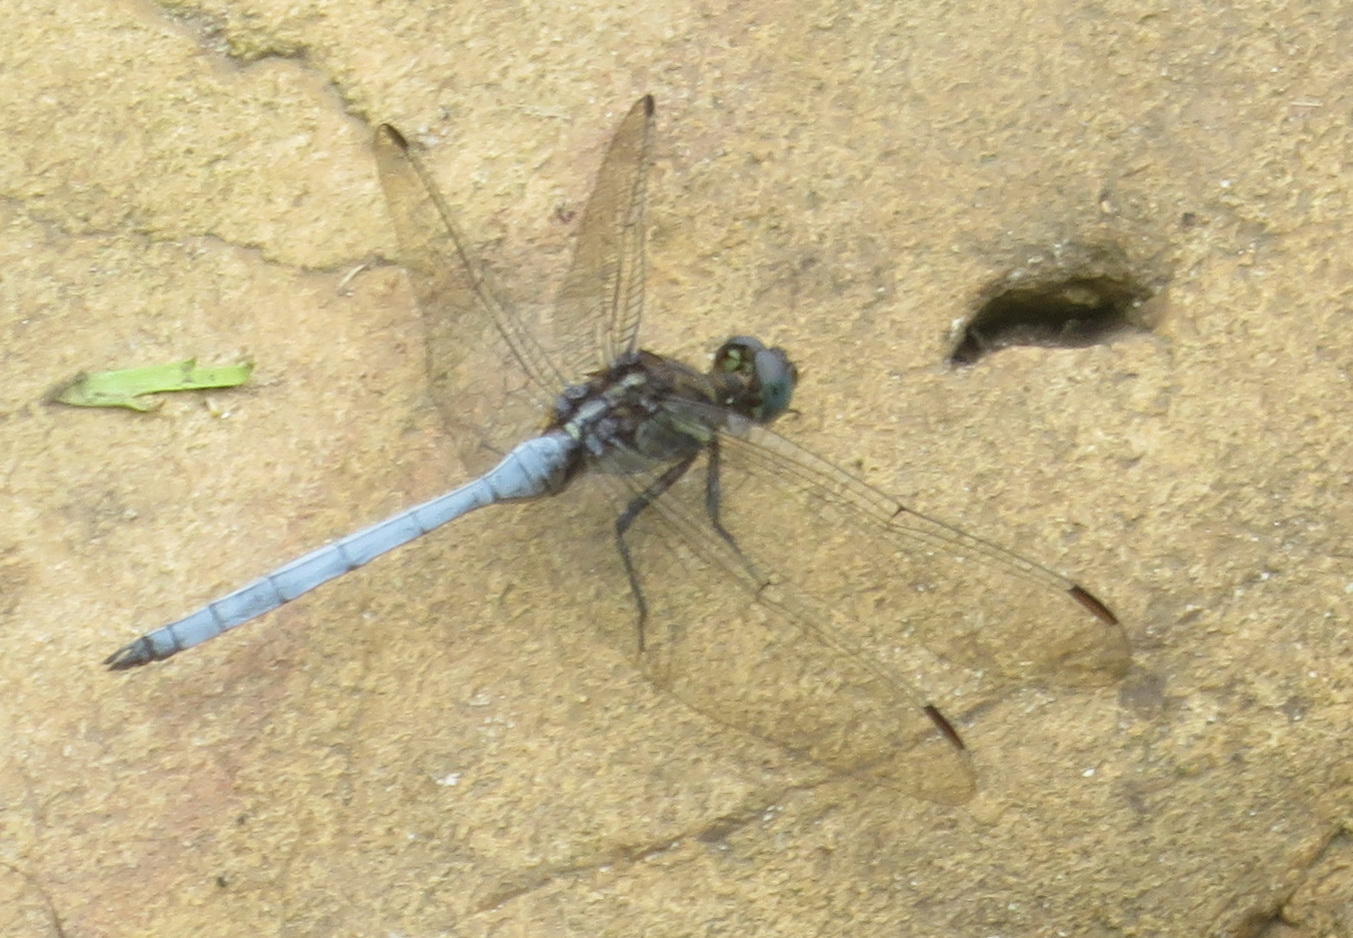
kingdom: Animalia
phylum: Arthropoda
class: Insecta
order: Odonata
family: Libellulidae
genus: Orthetrum
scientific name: Orthetrum julia
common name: Julia skimmer
